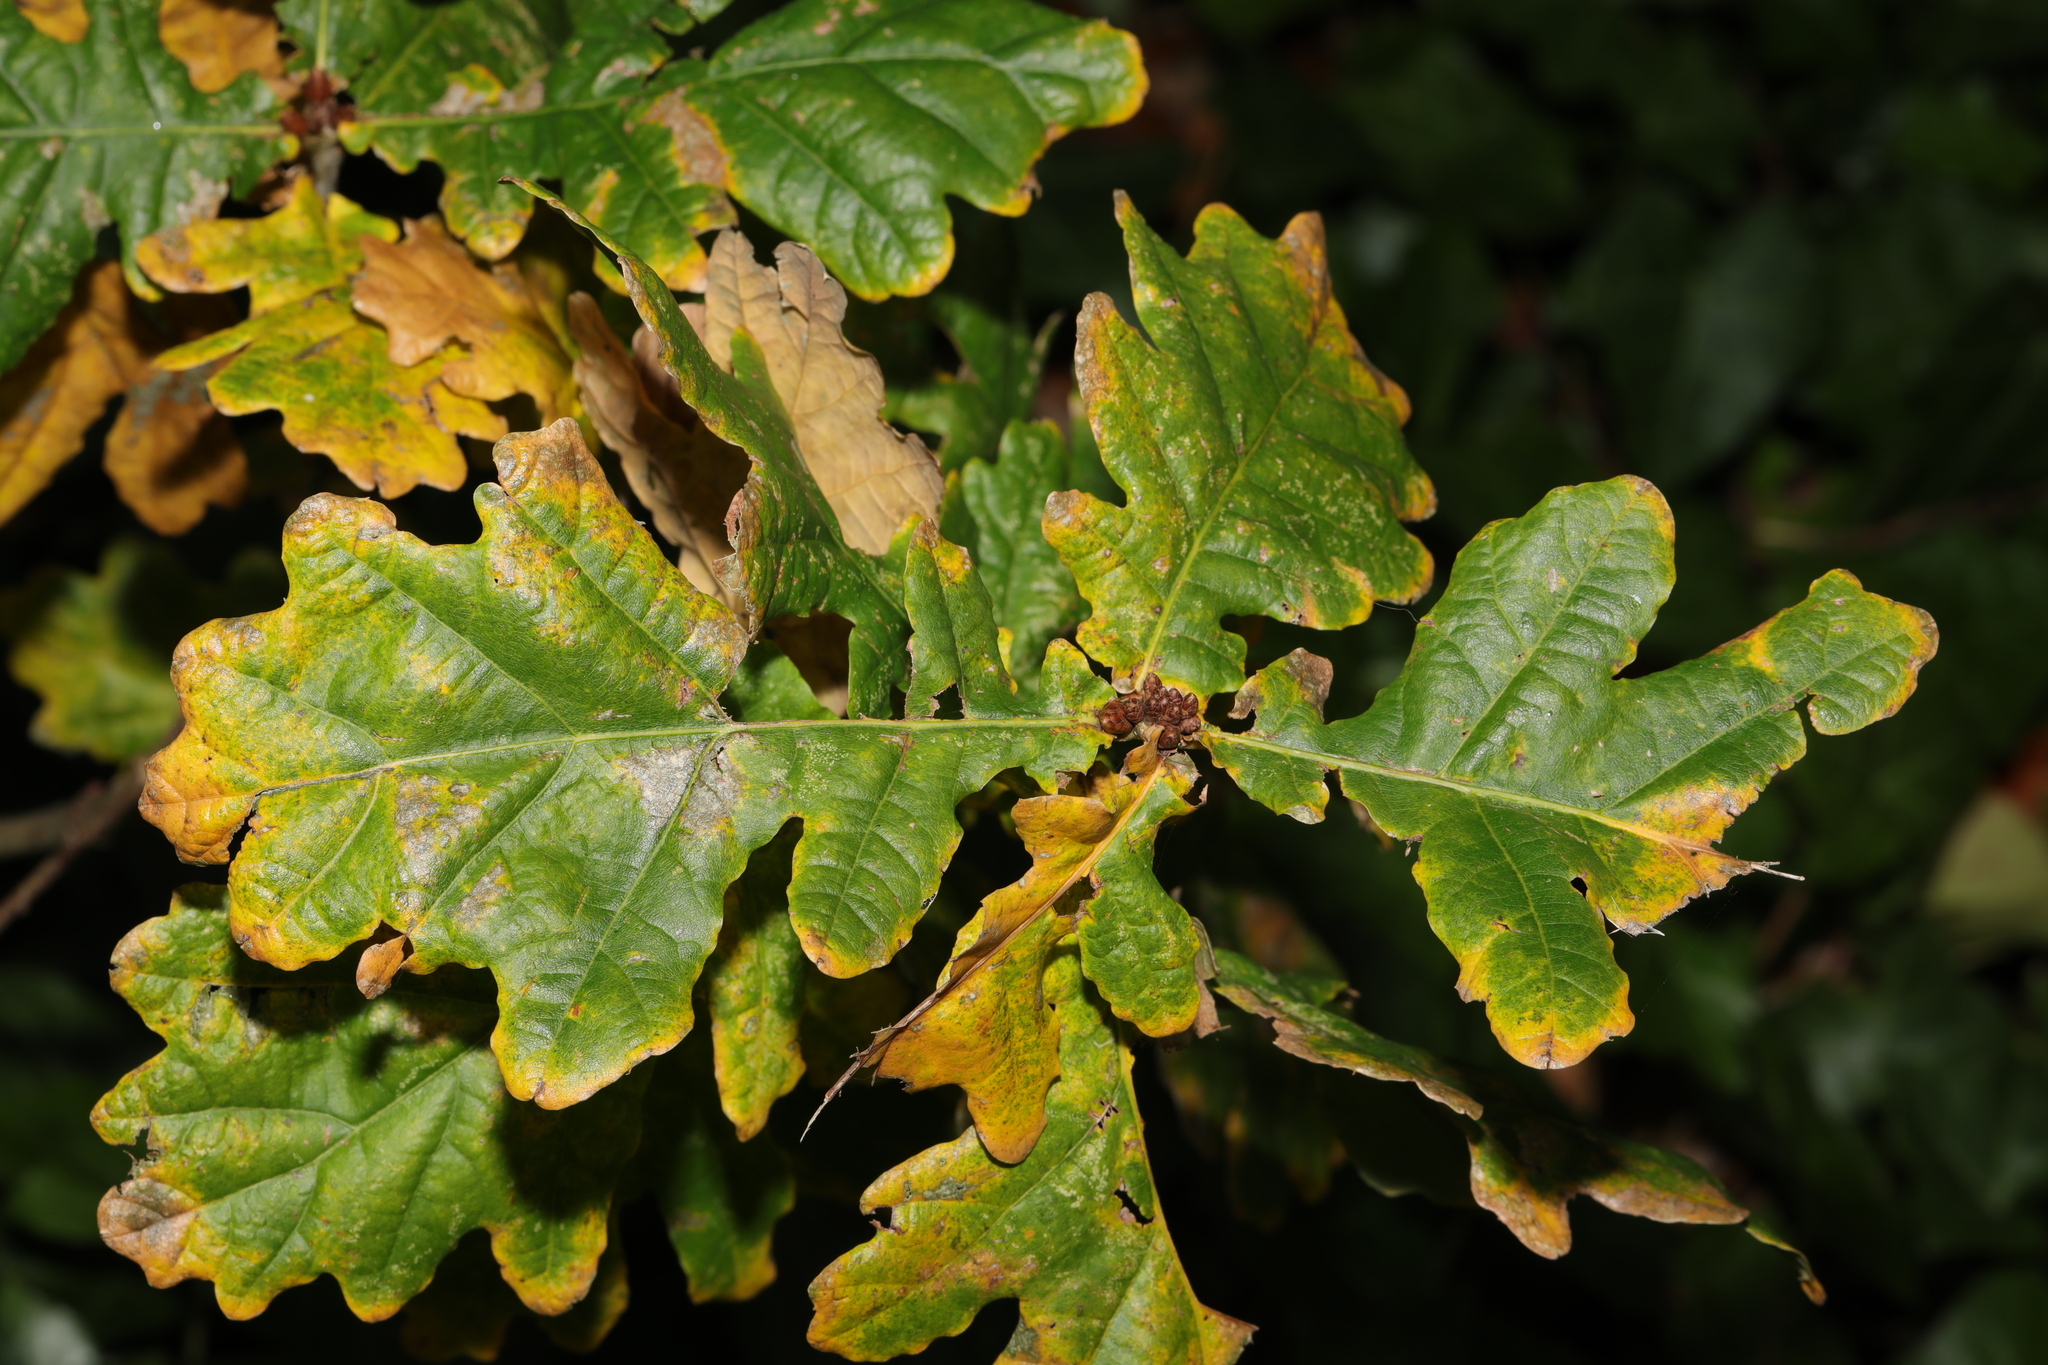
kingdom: Plantae
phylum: Tracheophyta
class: Magnoliopsida
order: Fagales
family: Fagaceae
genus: Quercus
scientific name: Quercus robur
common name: Pedunculate oak
